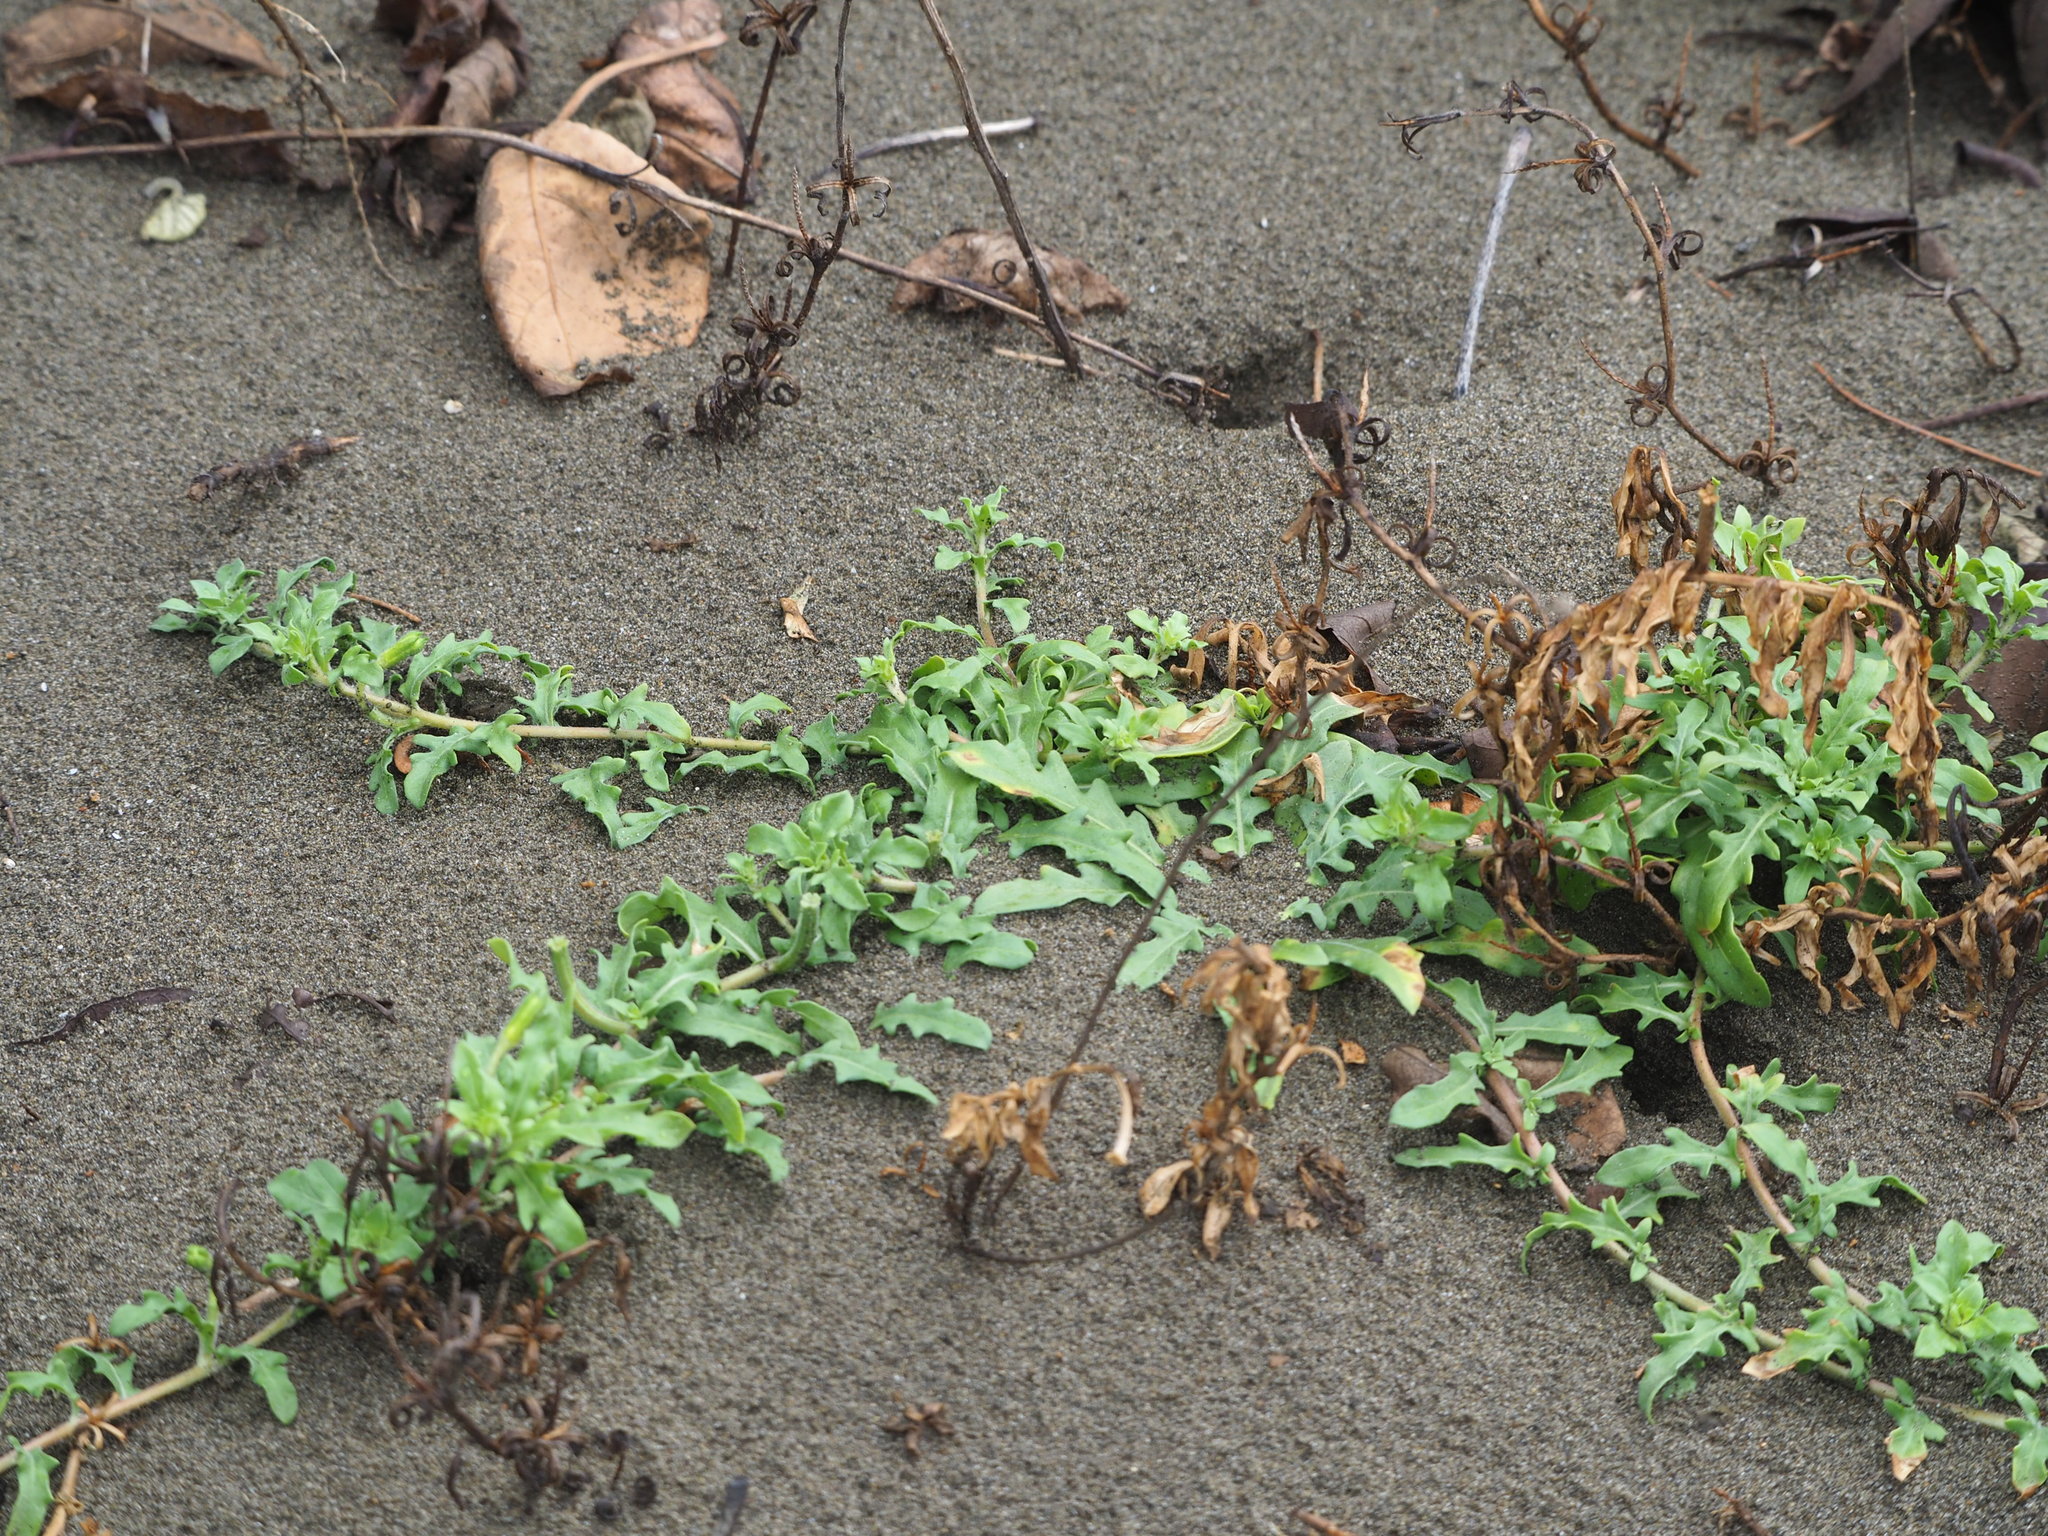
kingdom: Plantae
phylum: Tracheophyta
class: Magnoliopsida
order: Myrtales
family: Onagraceae
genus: Oenothera
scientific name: Oenothera laciniata
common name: Cut-leaved evening-primrose
